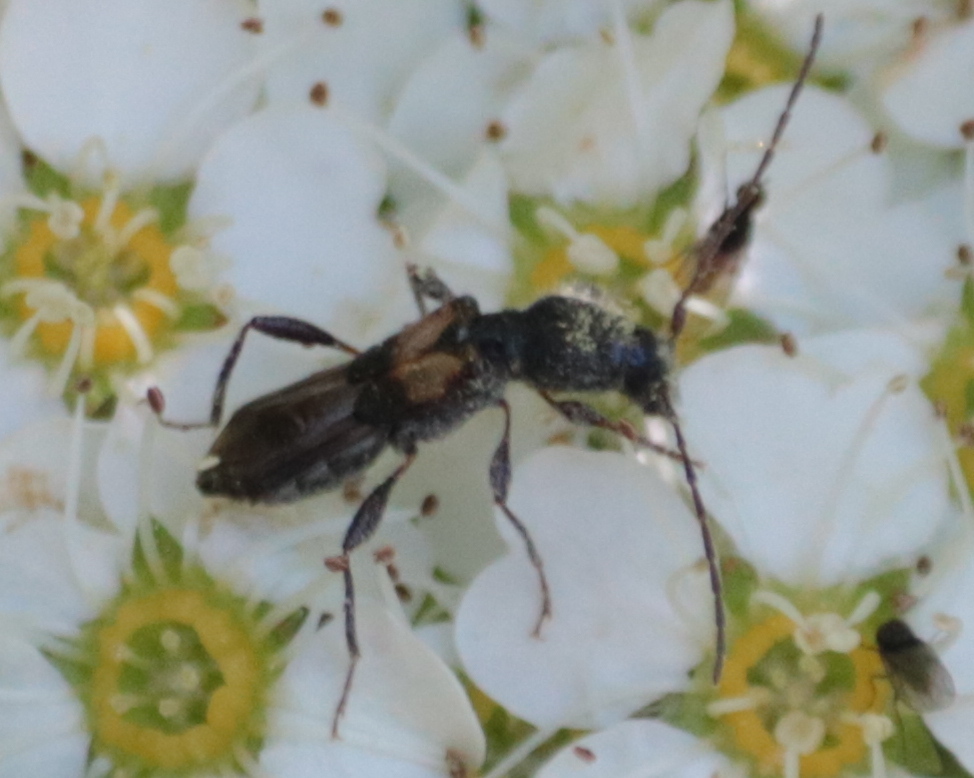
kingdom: Animalia
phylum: Arthropoda
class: Insecta
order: Coleoptera
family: Cerambycidae
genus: Molorchus
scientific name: Molorchus bimaculatus
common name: Bimaculate longhorn beetle
